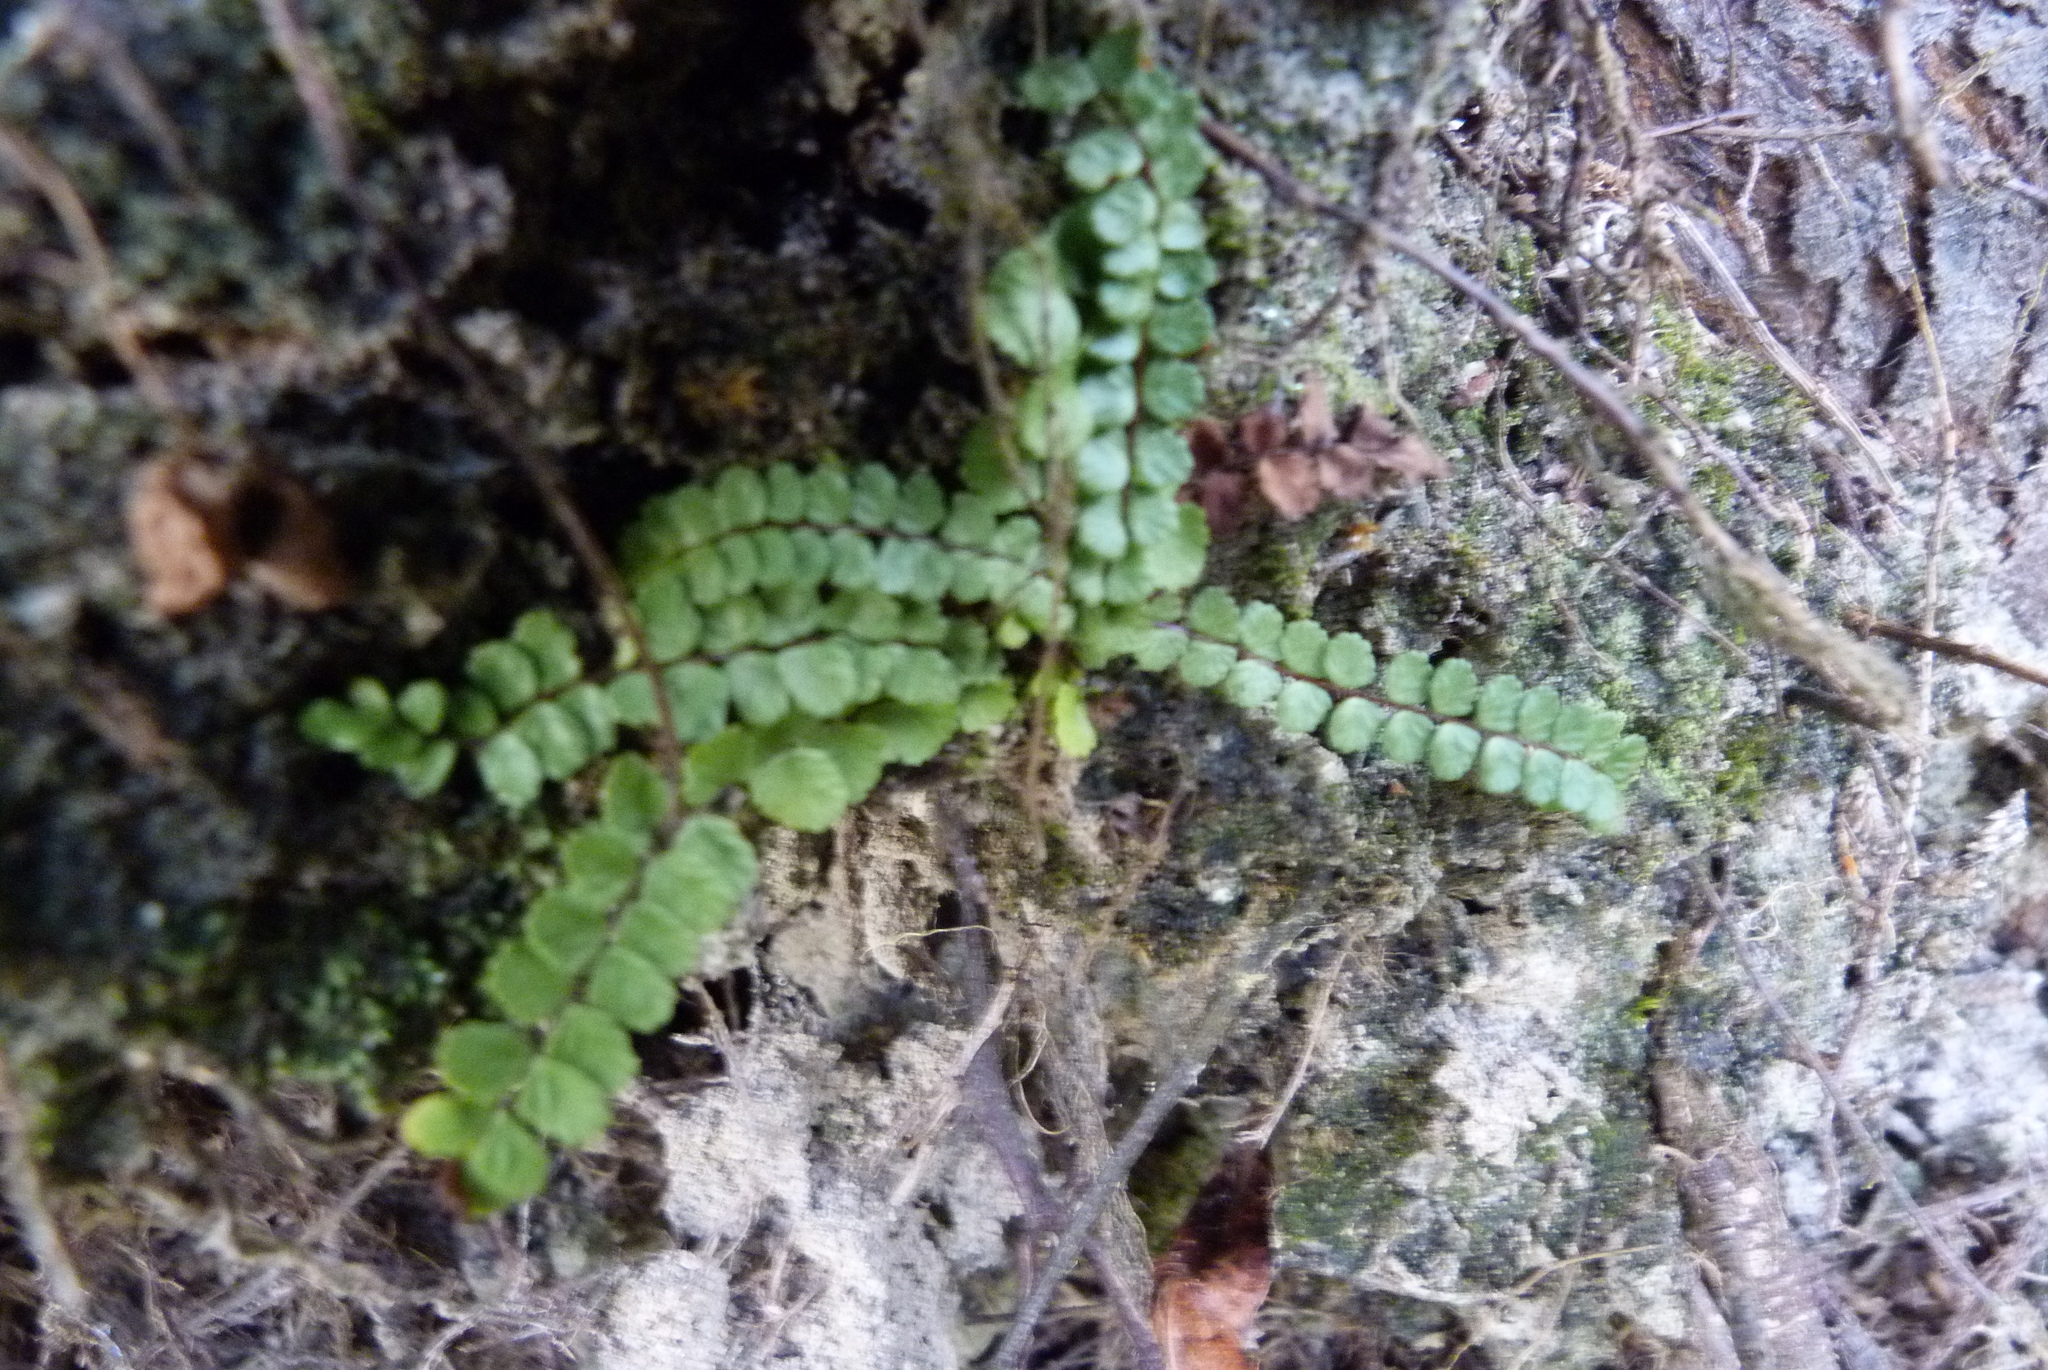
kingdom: Plantae
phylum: Tracheophyta
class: Polypodiopsida
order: Polypodiales
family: Aspleniaceae
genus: Asplenium
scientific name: Asplenium trichomanes
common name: Maidenhair spleenwort
